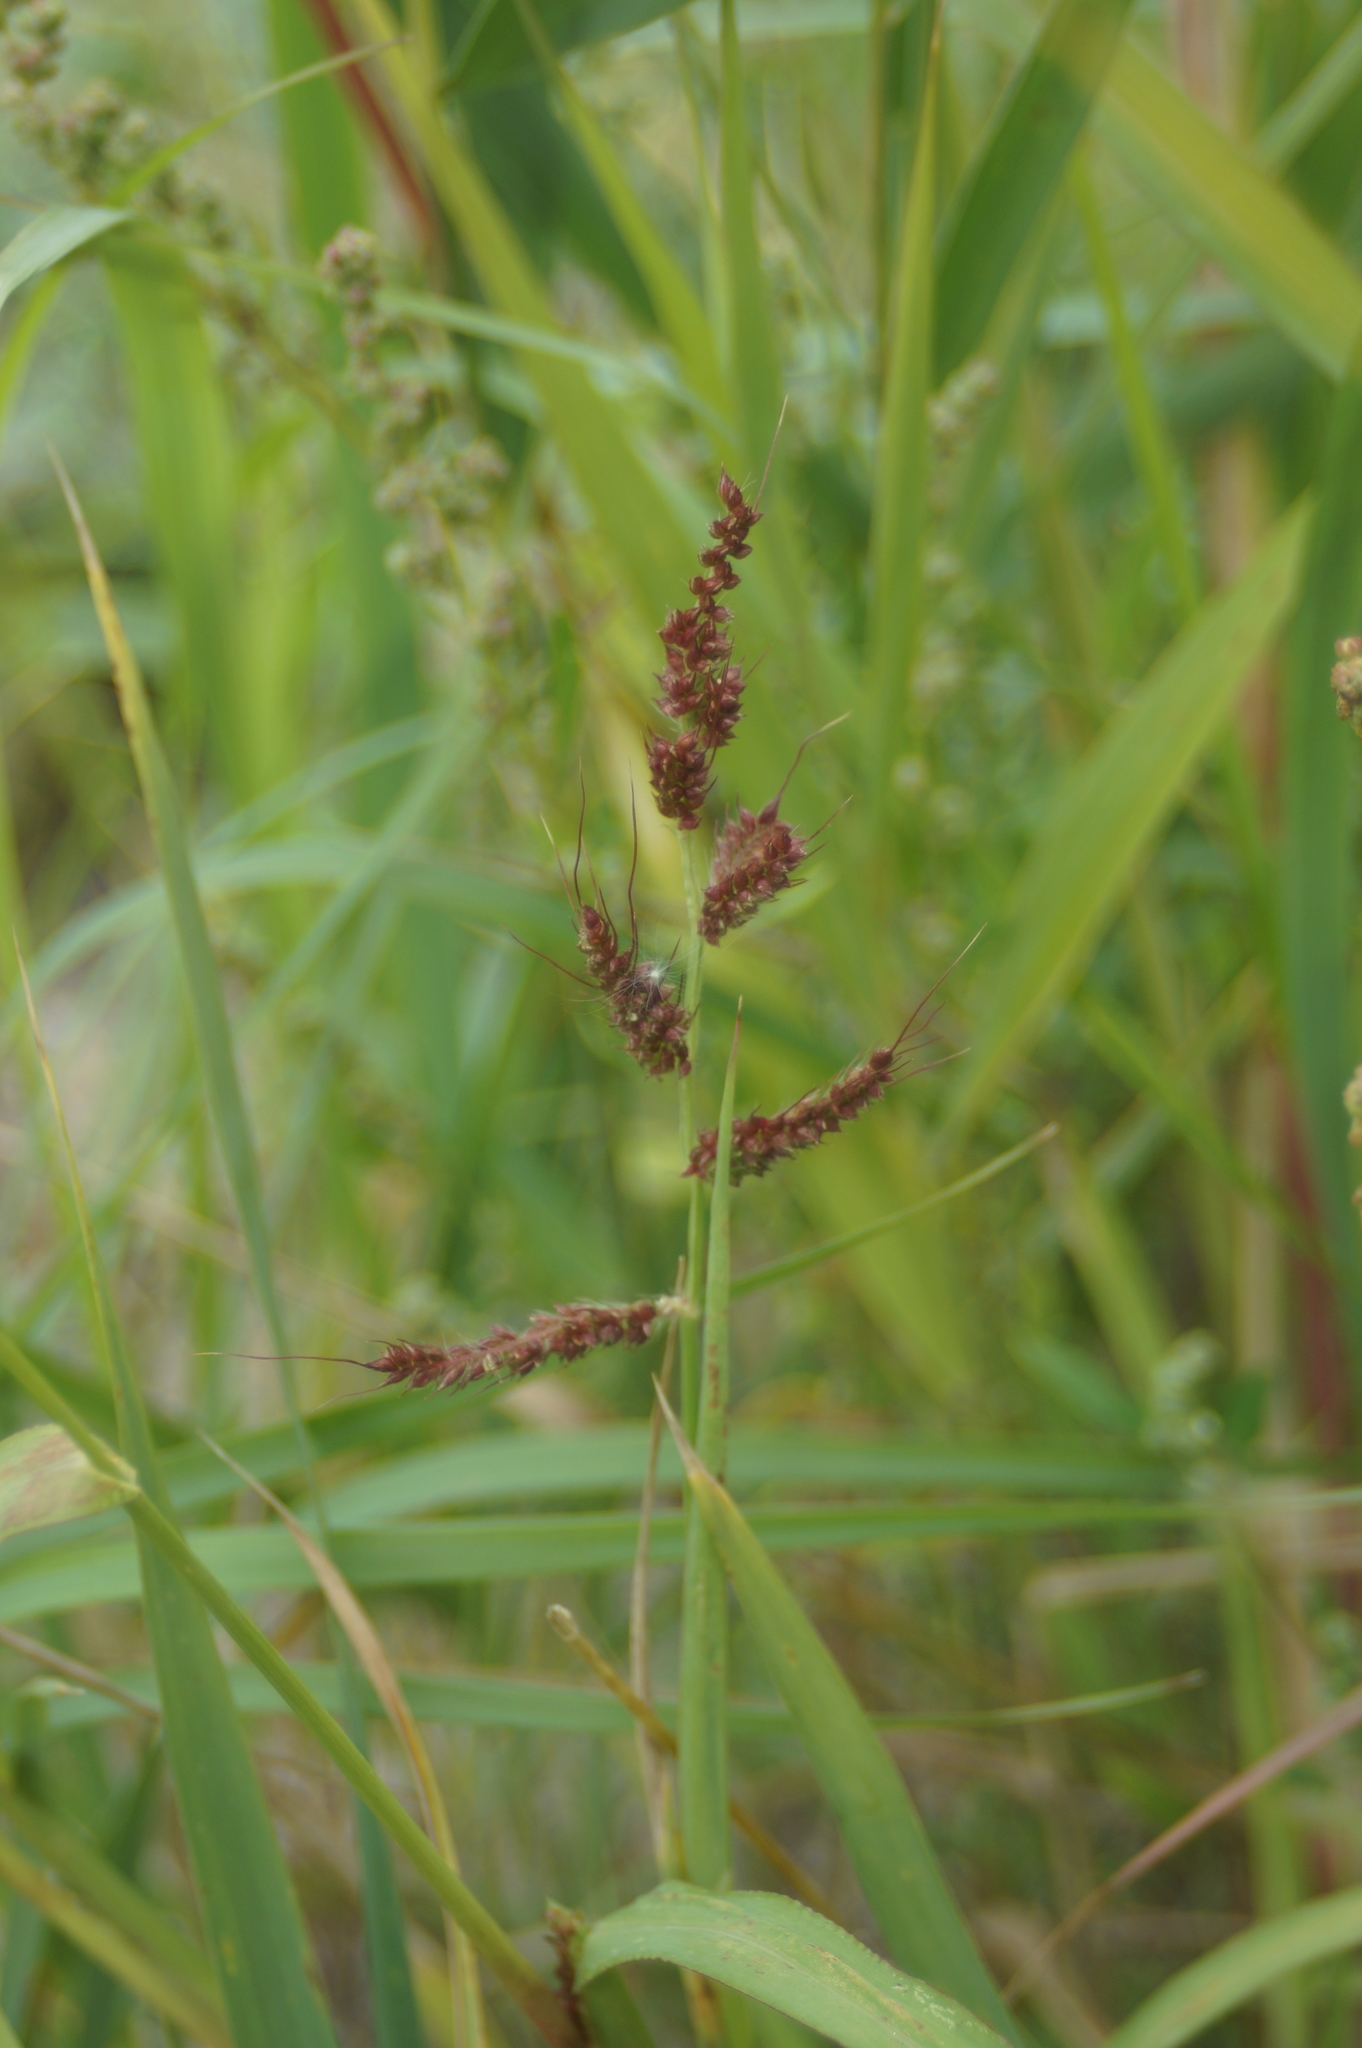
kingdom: Plantae
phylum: Tracheophyta
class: Liliopsida
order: Poales
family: Poaceae
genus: Echinochloa
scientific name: Echinochloa crus-galli
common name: Cockspur
